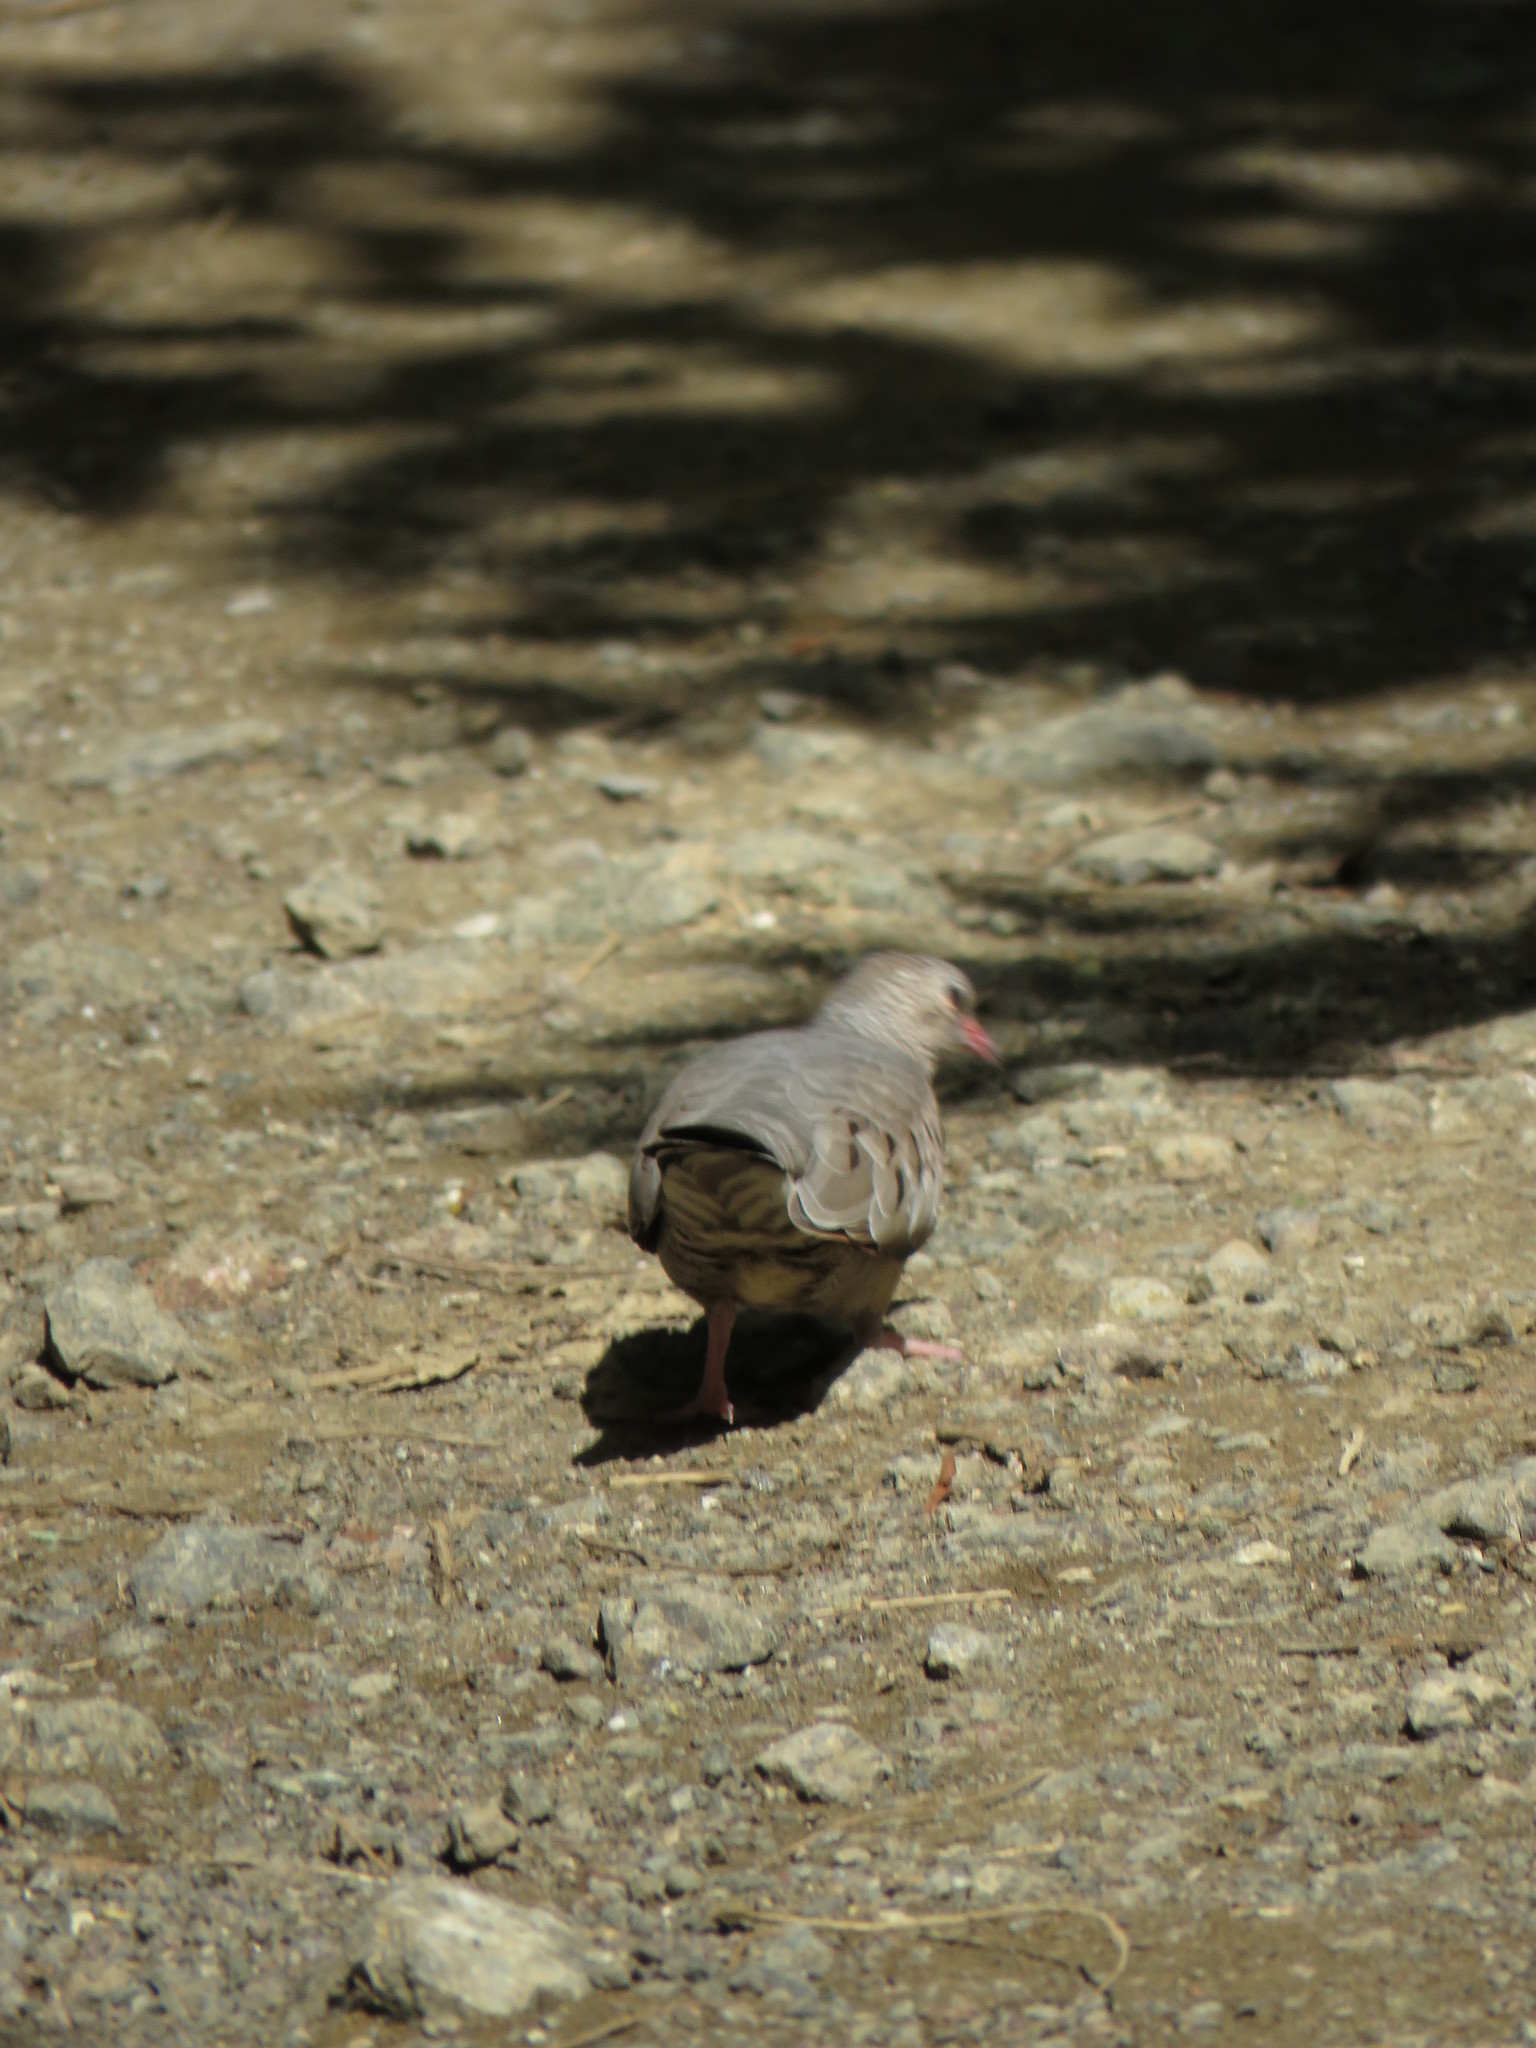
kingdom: Animalia
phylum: Chordata
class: Aves
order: Columbiformes
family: Columbidae
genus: Columbina
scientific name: Columbina passerina
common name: Common ground-dove
